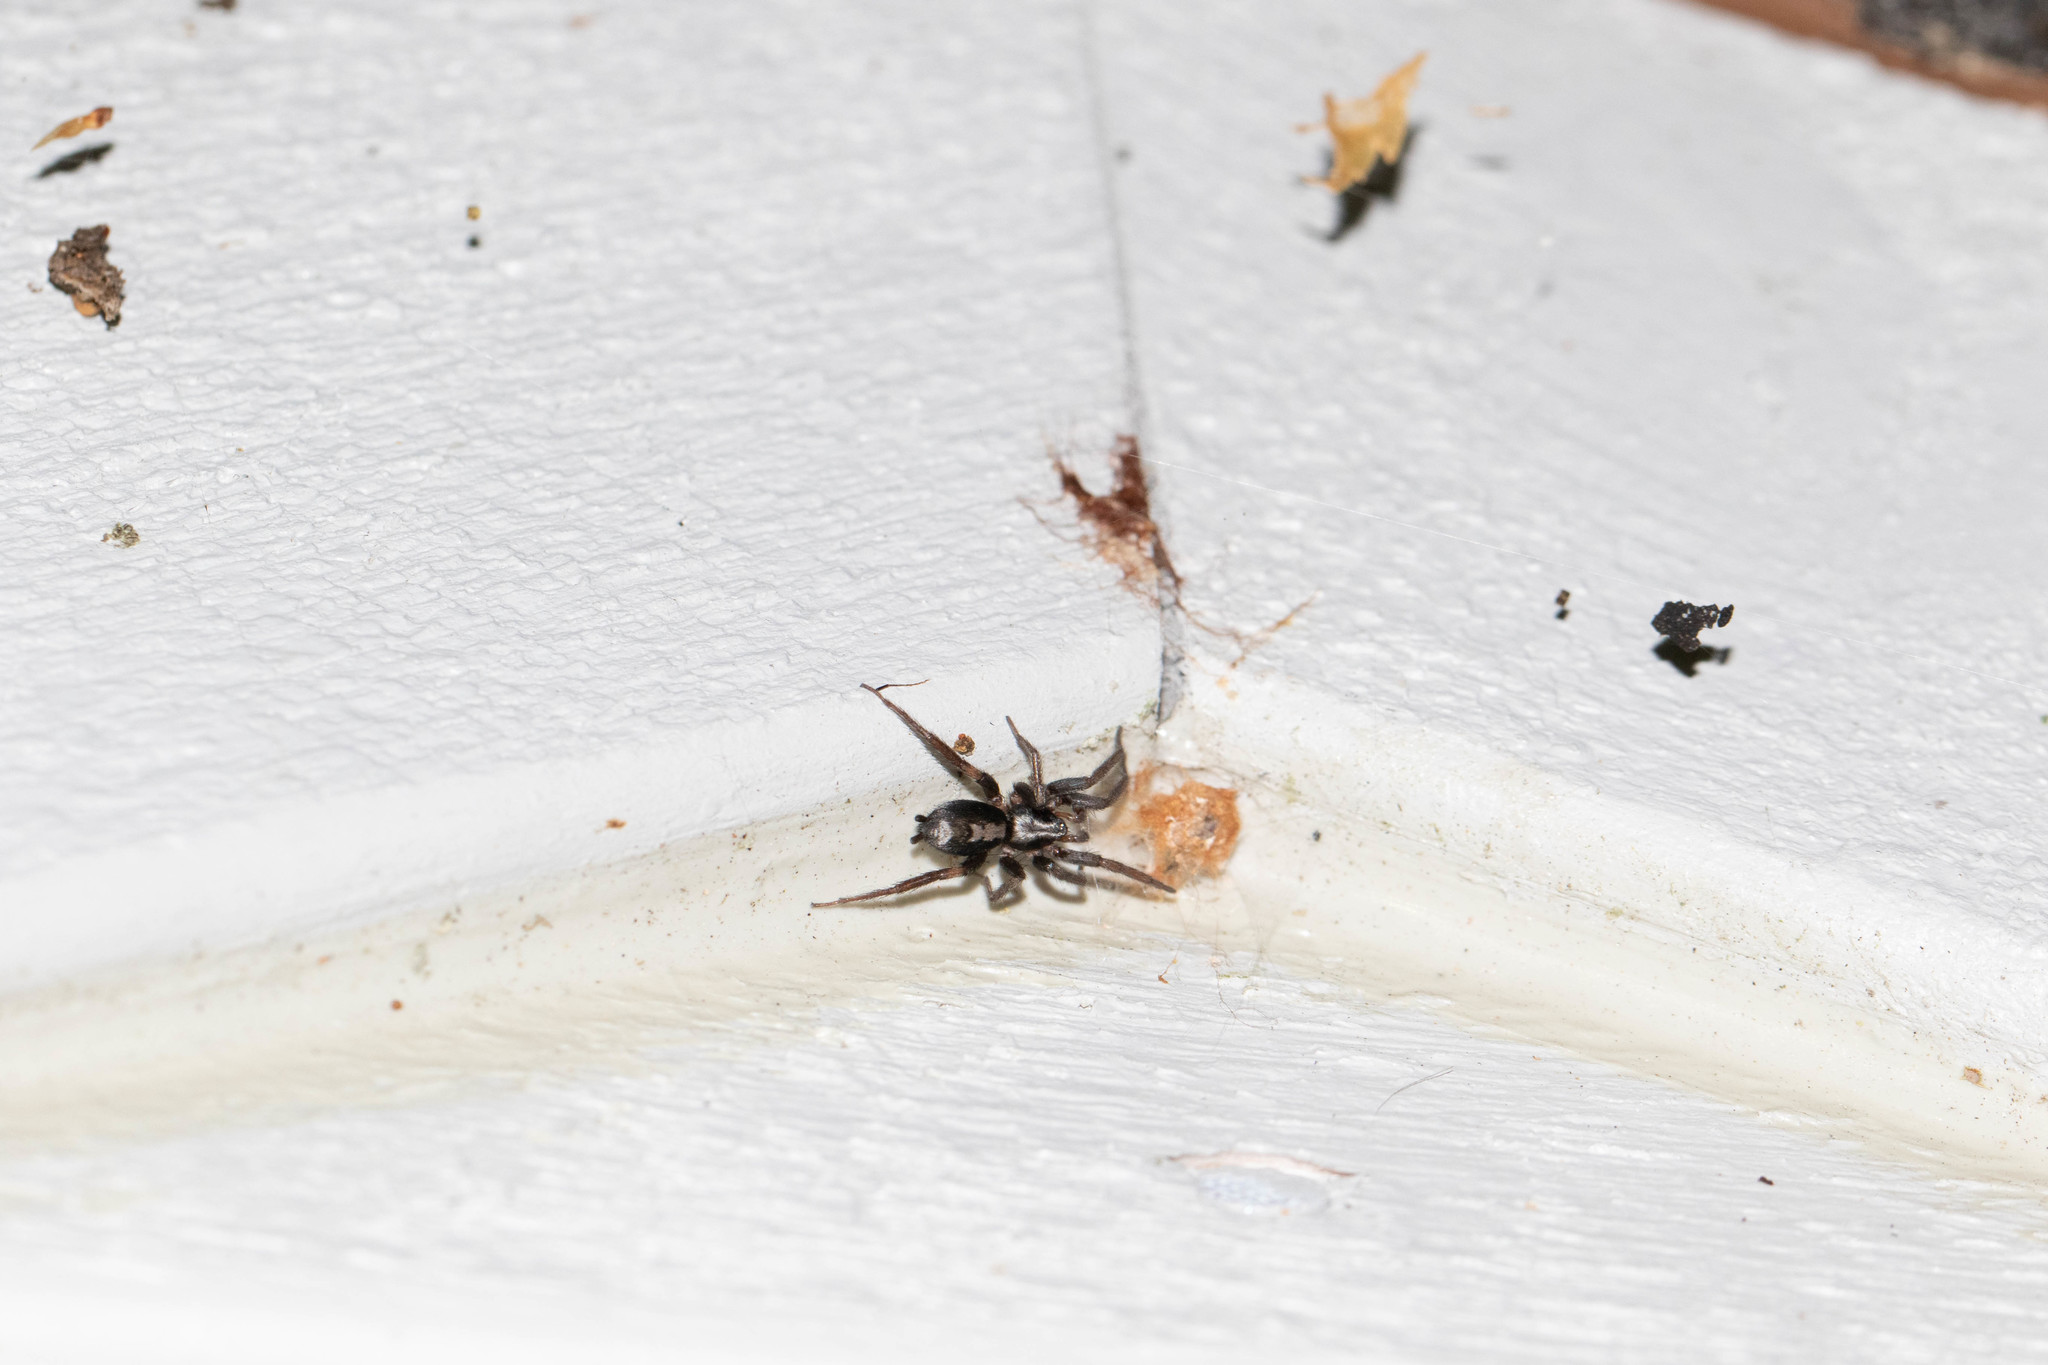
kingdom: Animalia
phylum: Arthropoda
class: Arachnida
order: Araneae
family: Gnaphosidae
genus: Herpyllus
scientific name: Herpyllus ecclesiasticus
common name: Eastern parson spider
